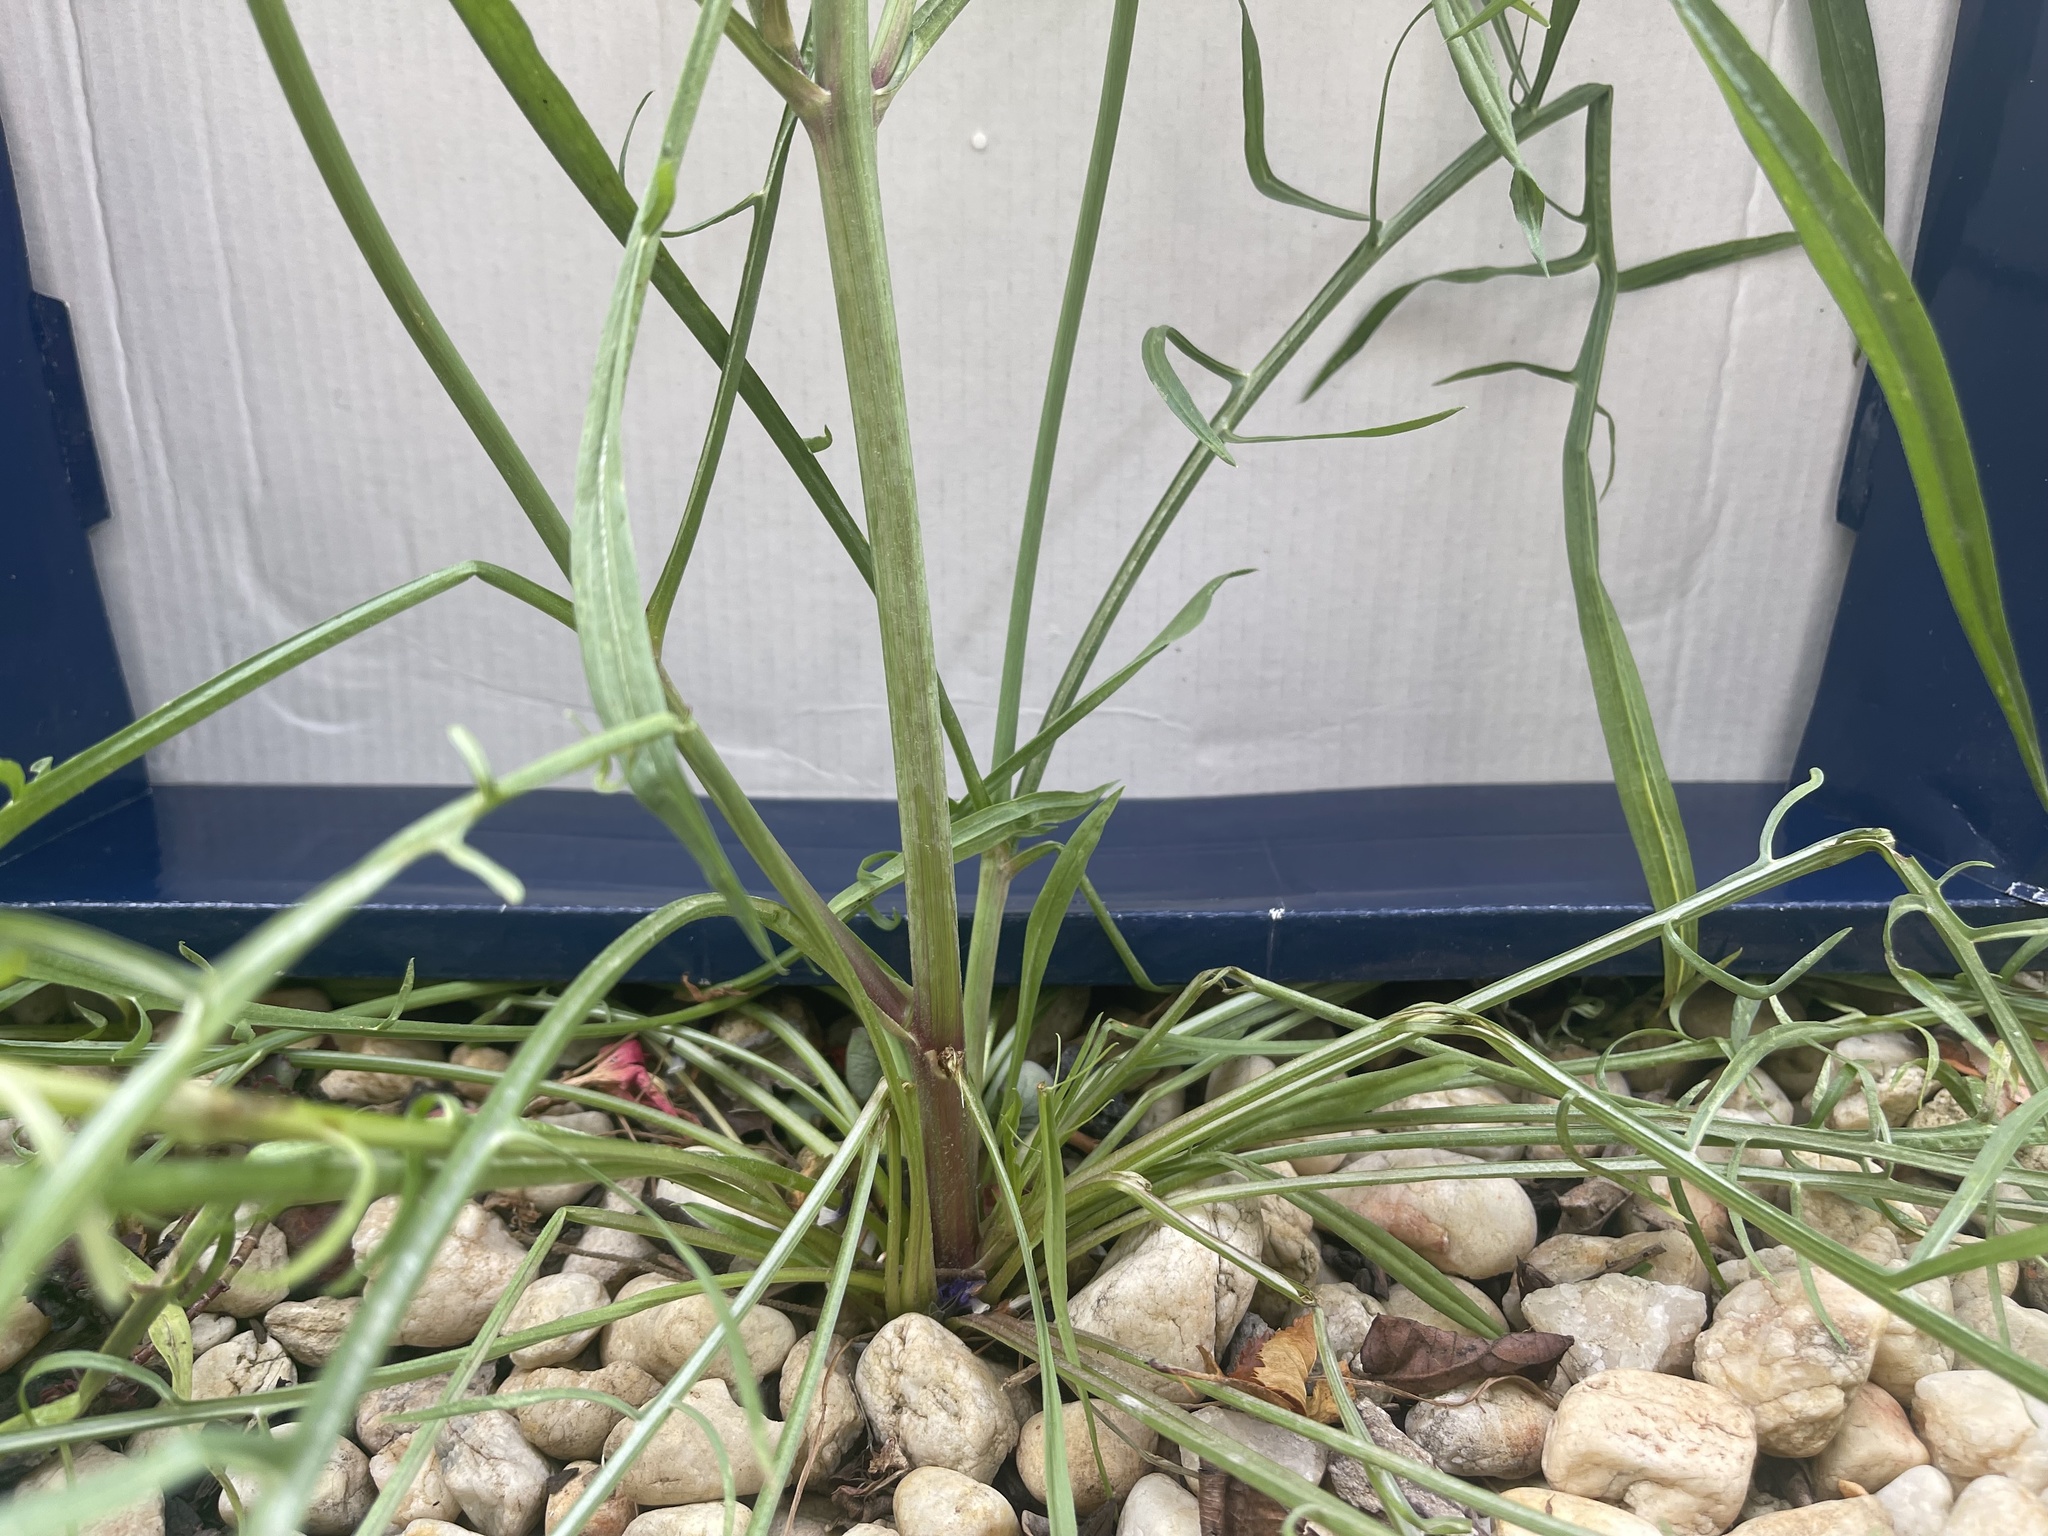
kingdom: Plantae
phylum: Tracheophyta
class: Magnoliopsida
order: Asterales
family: Asteraceae
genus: Scorzonera
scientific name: Scorzonera laciniata
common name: Cutleaf vipergrass
